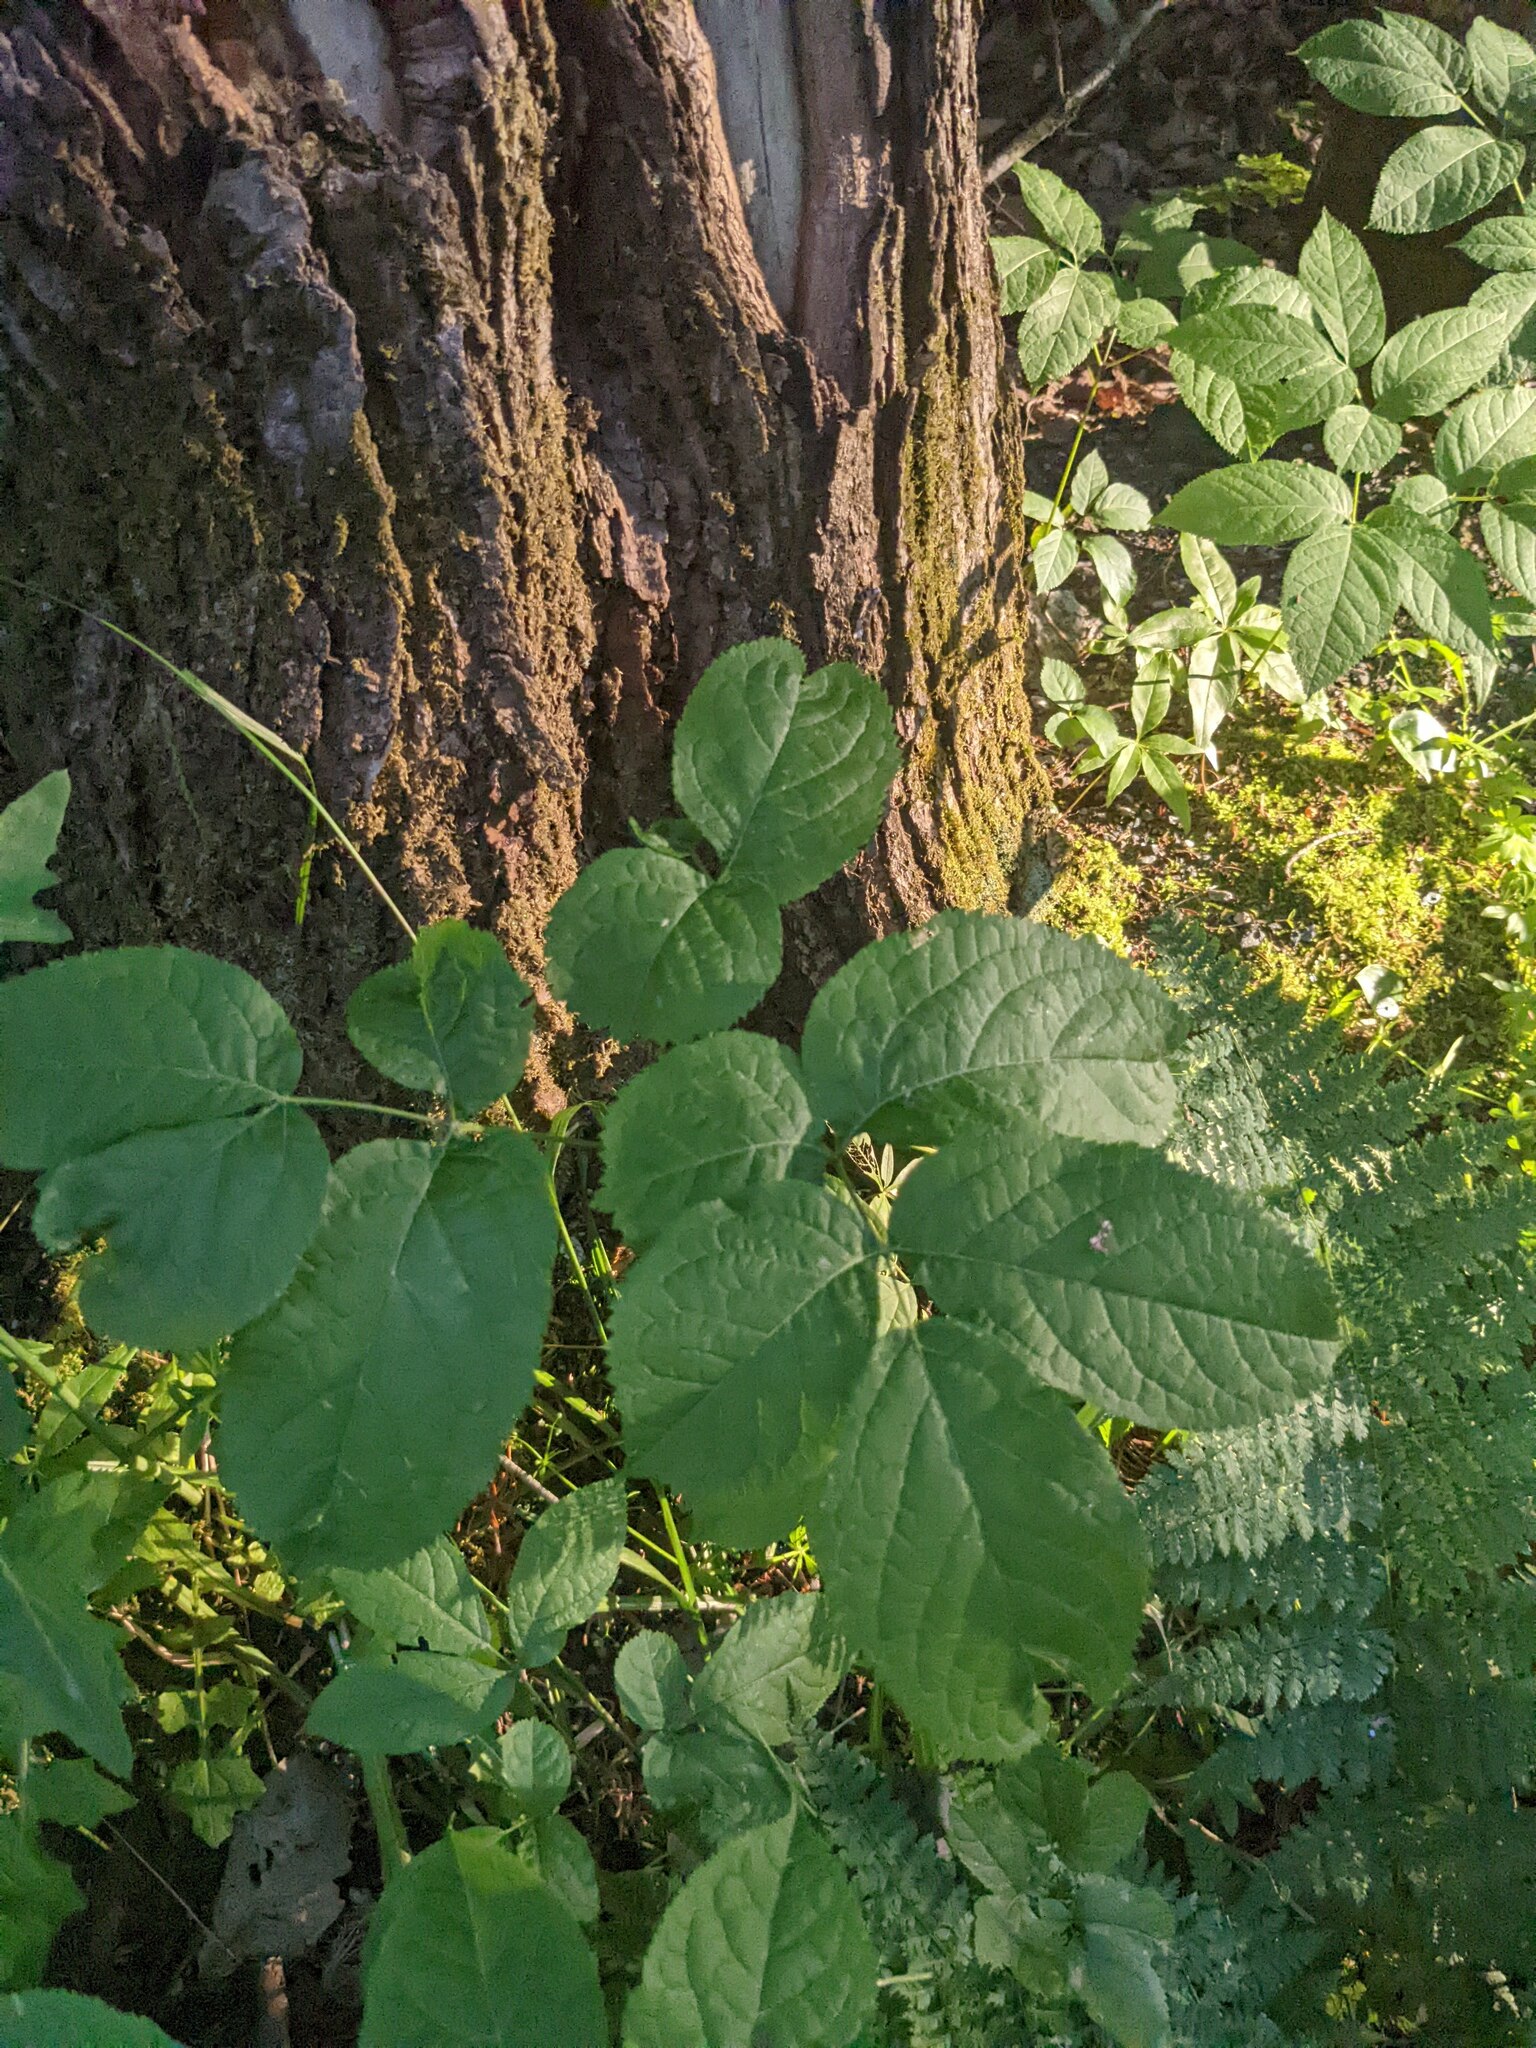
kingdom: Plantae
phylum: Tracheophyta
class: Magnoliopsida
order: Apiales
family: Araliaceae
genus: Aralia
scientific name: Aralia nudicaulis
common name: Wild sarsaparilla
